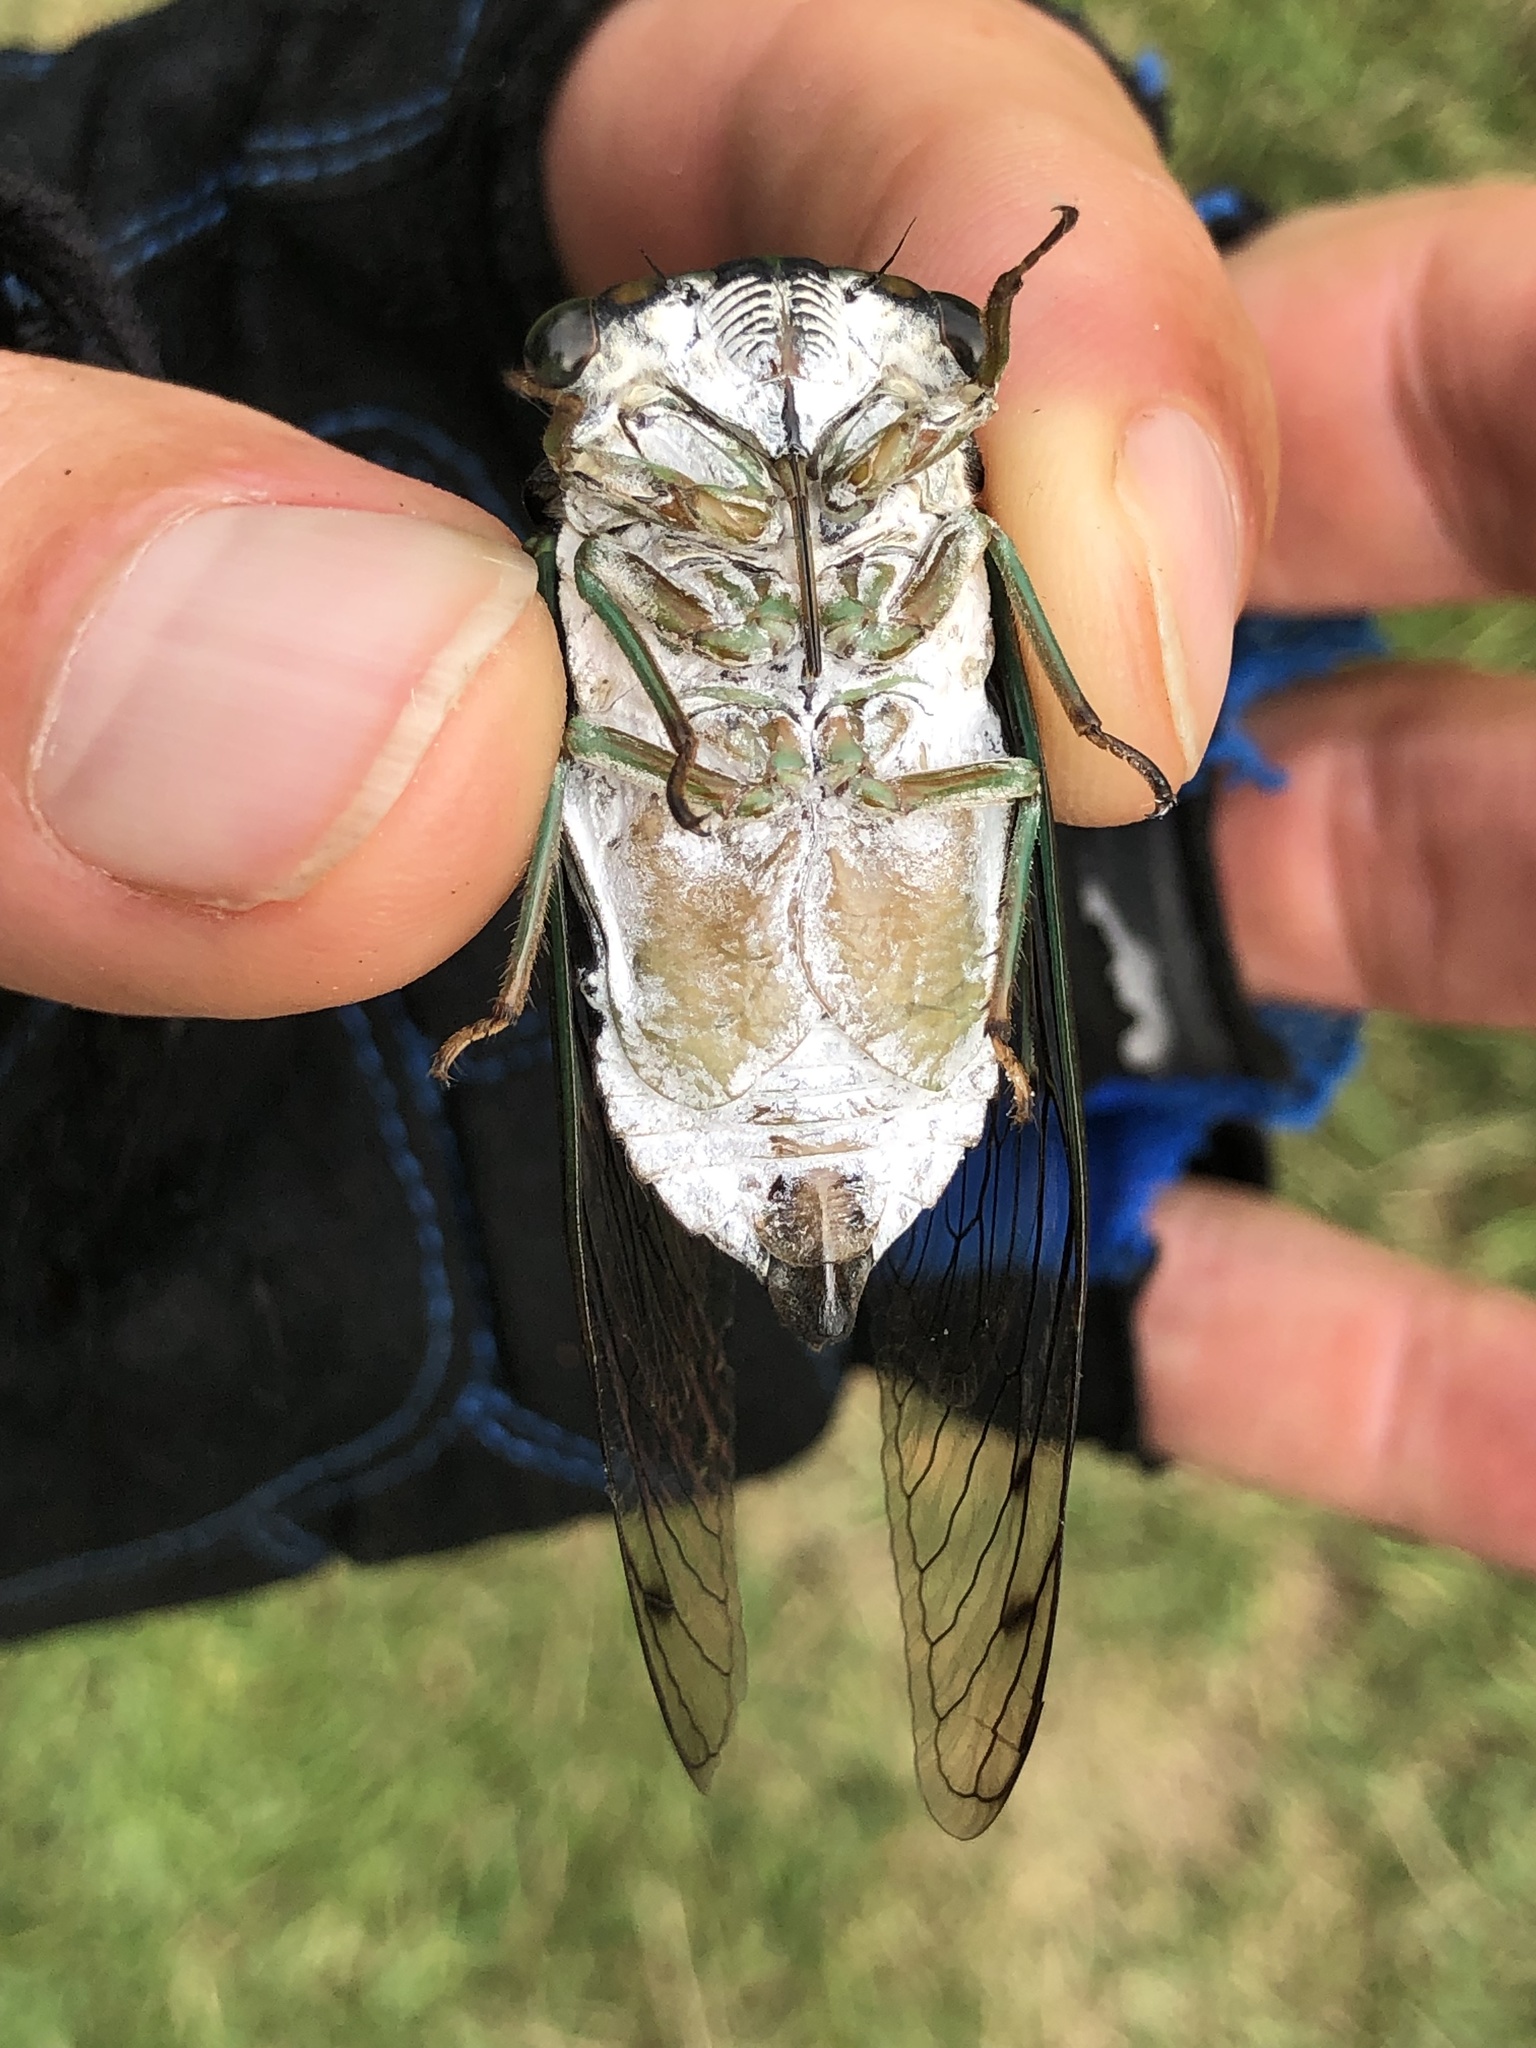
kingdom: Animalia
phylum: Arthropoda
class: Insecta
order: Hemiptera
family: Cicadidae
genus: Neotibicen
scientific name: Neotibicen tibicen
